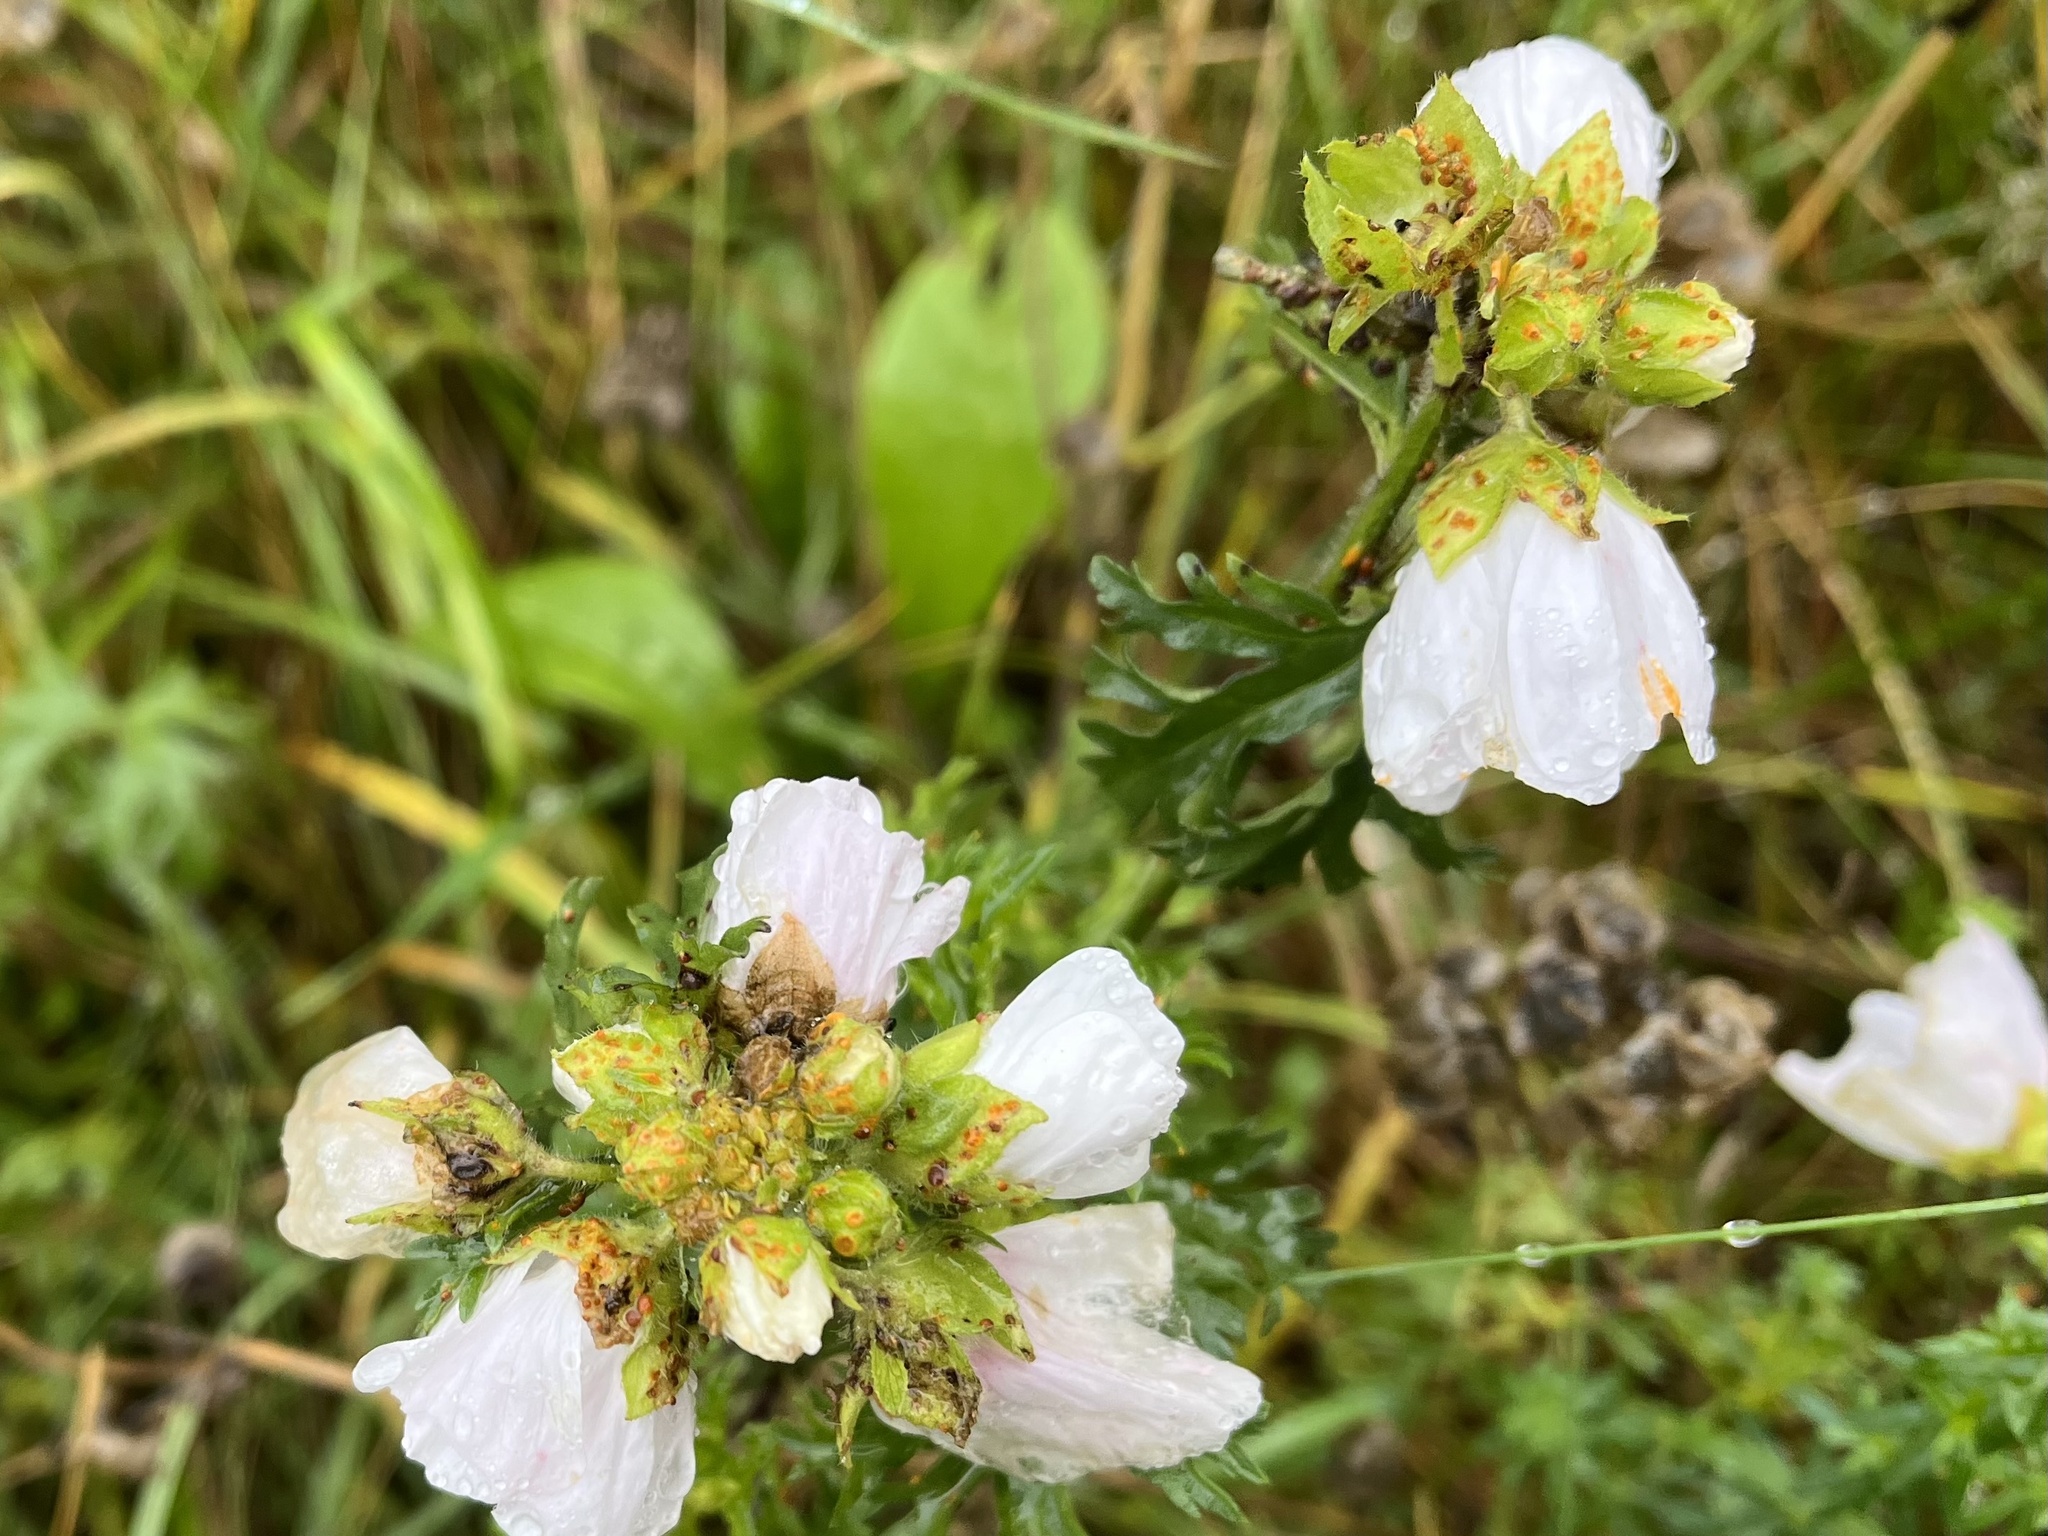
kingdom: Fungi
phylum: Basidiomycota
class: Pucciniomycetes
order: Pucciniales
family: Pucciniaceae
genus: Puccinia
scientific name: Puccinia malvacearum
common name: Hollyhock rust
